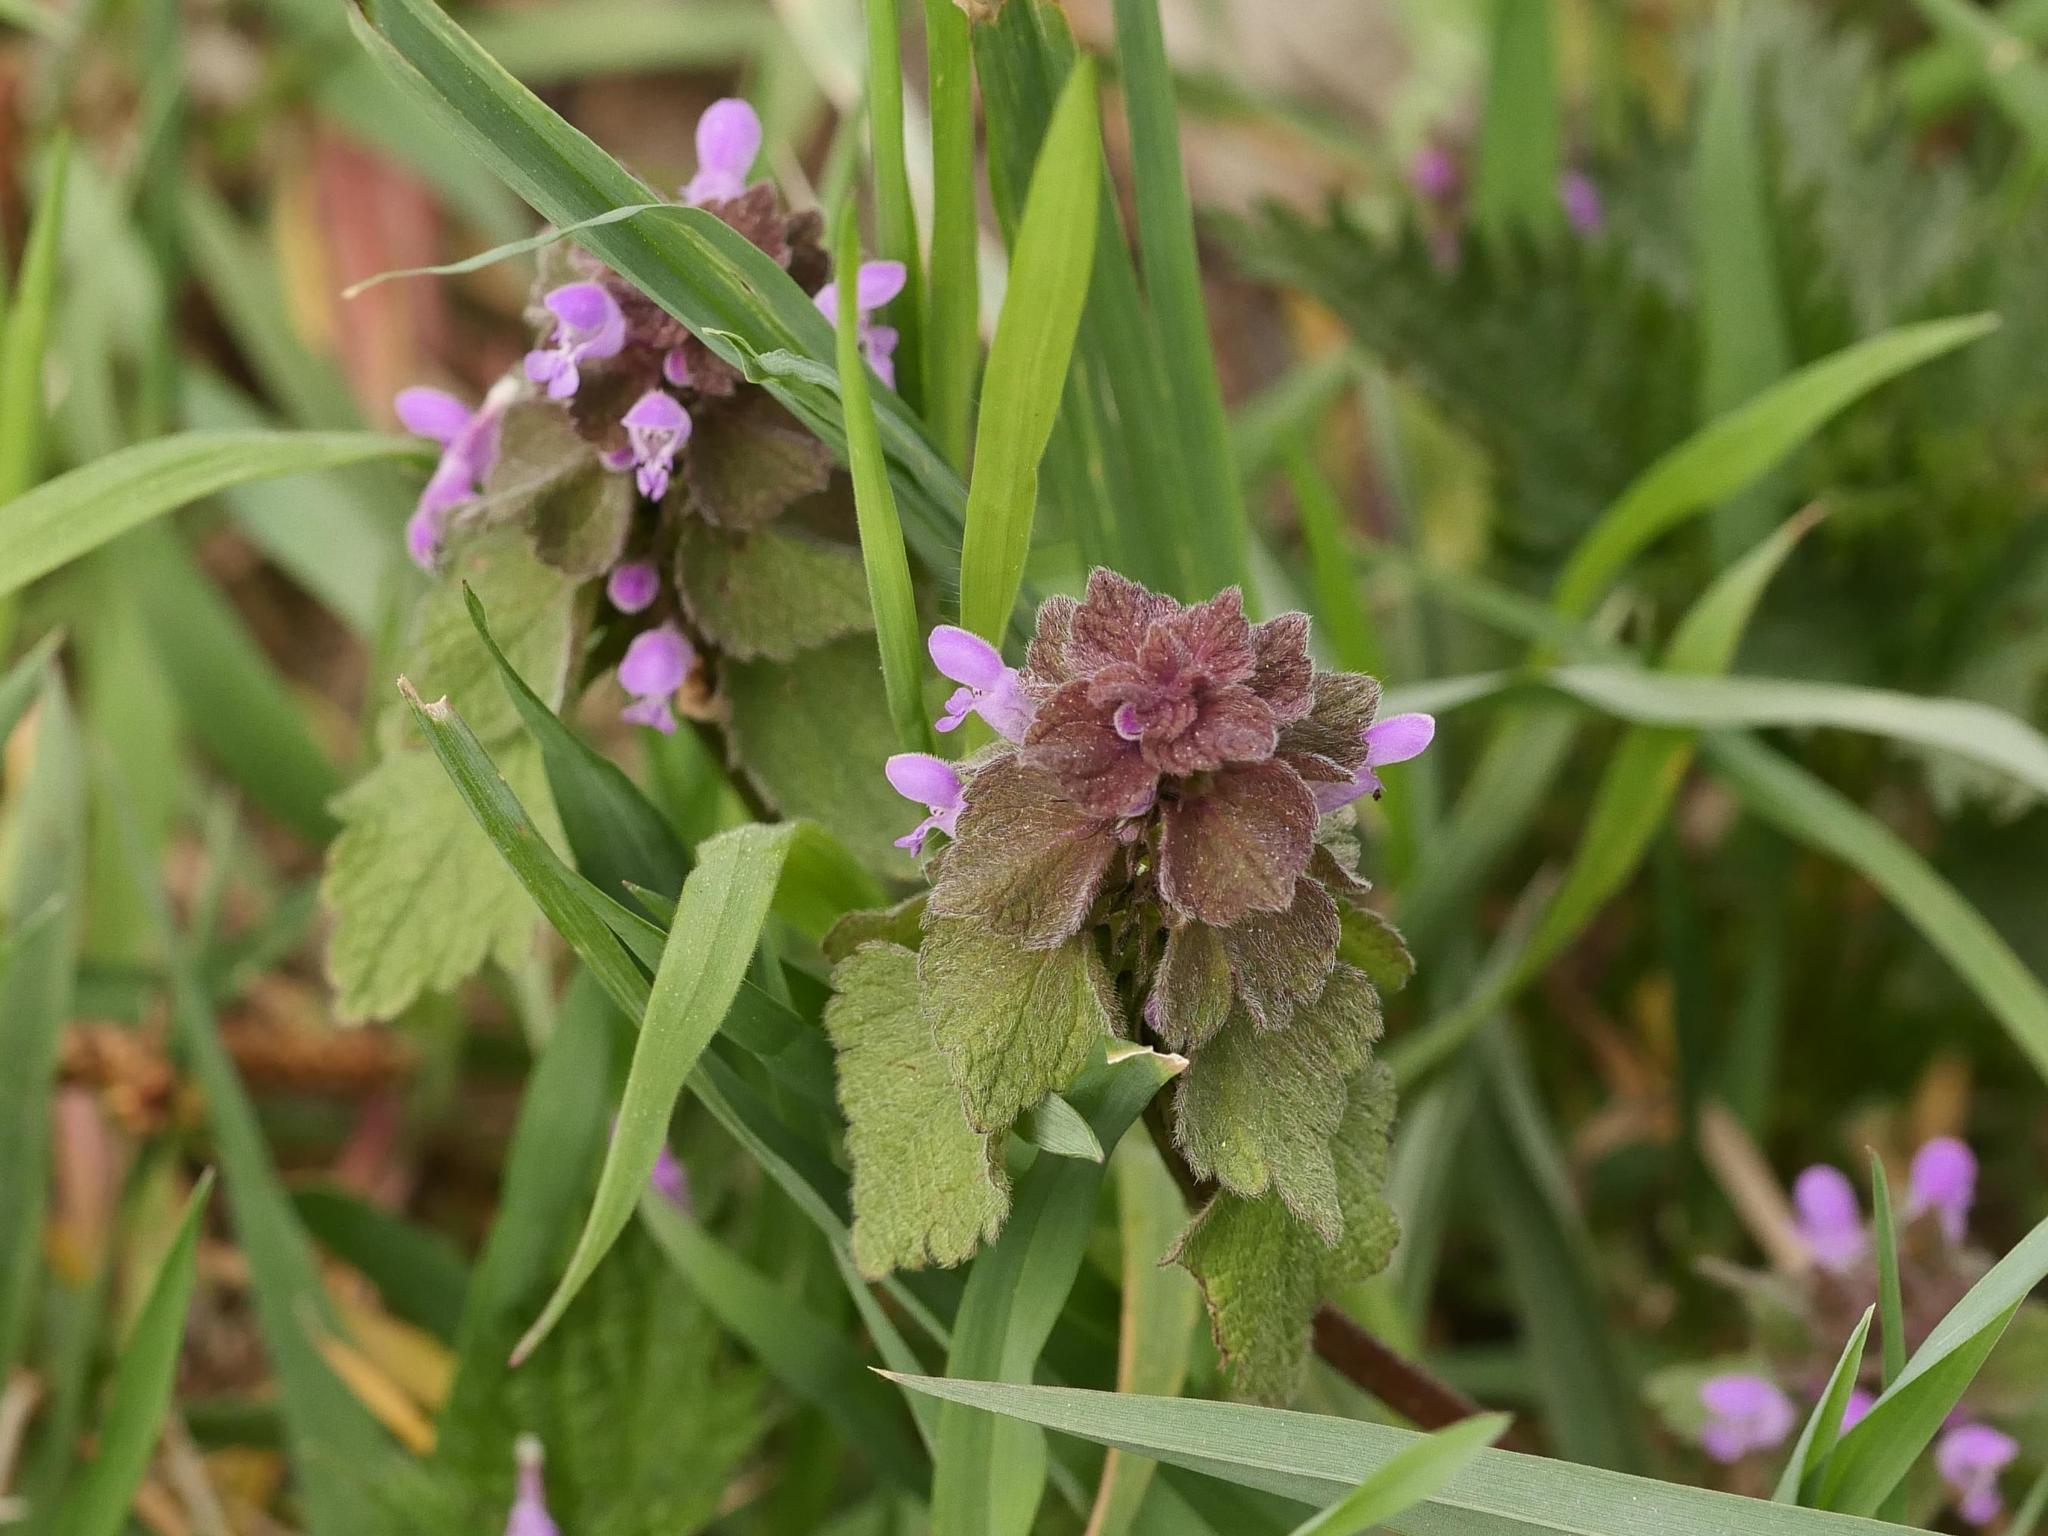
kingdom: Plantae
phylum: Tracheophyta
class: Magnoliopsida
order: Lamiales
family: Lamiaceae
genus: Lamium
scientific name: Lamium purpureum
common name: Red dead-nettle
